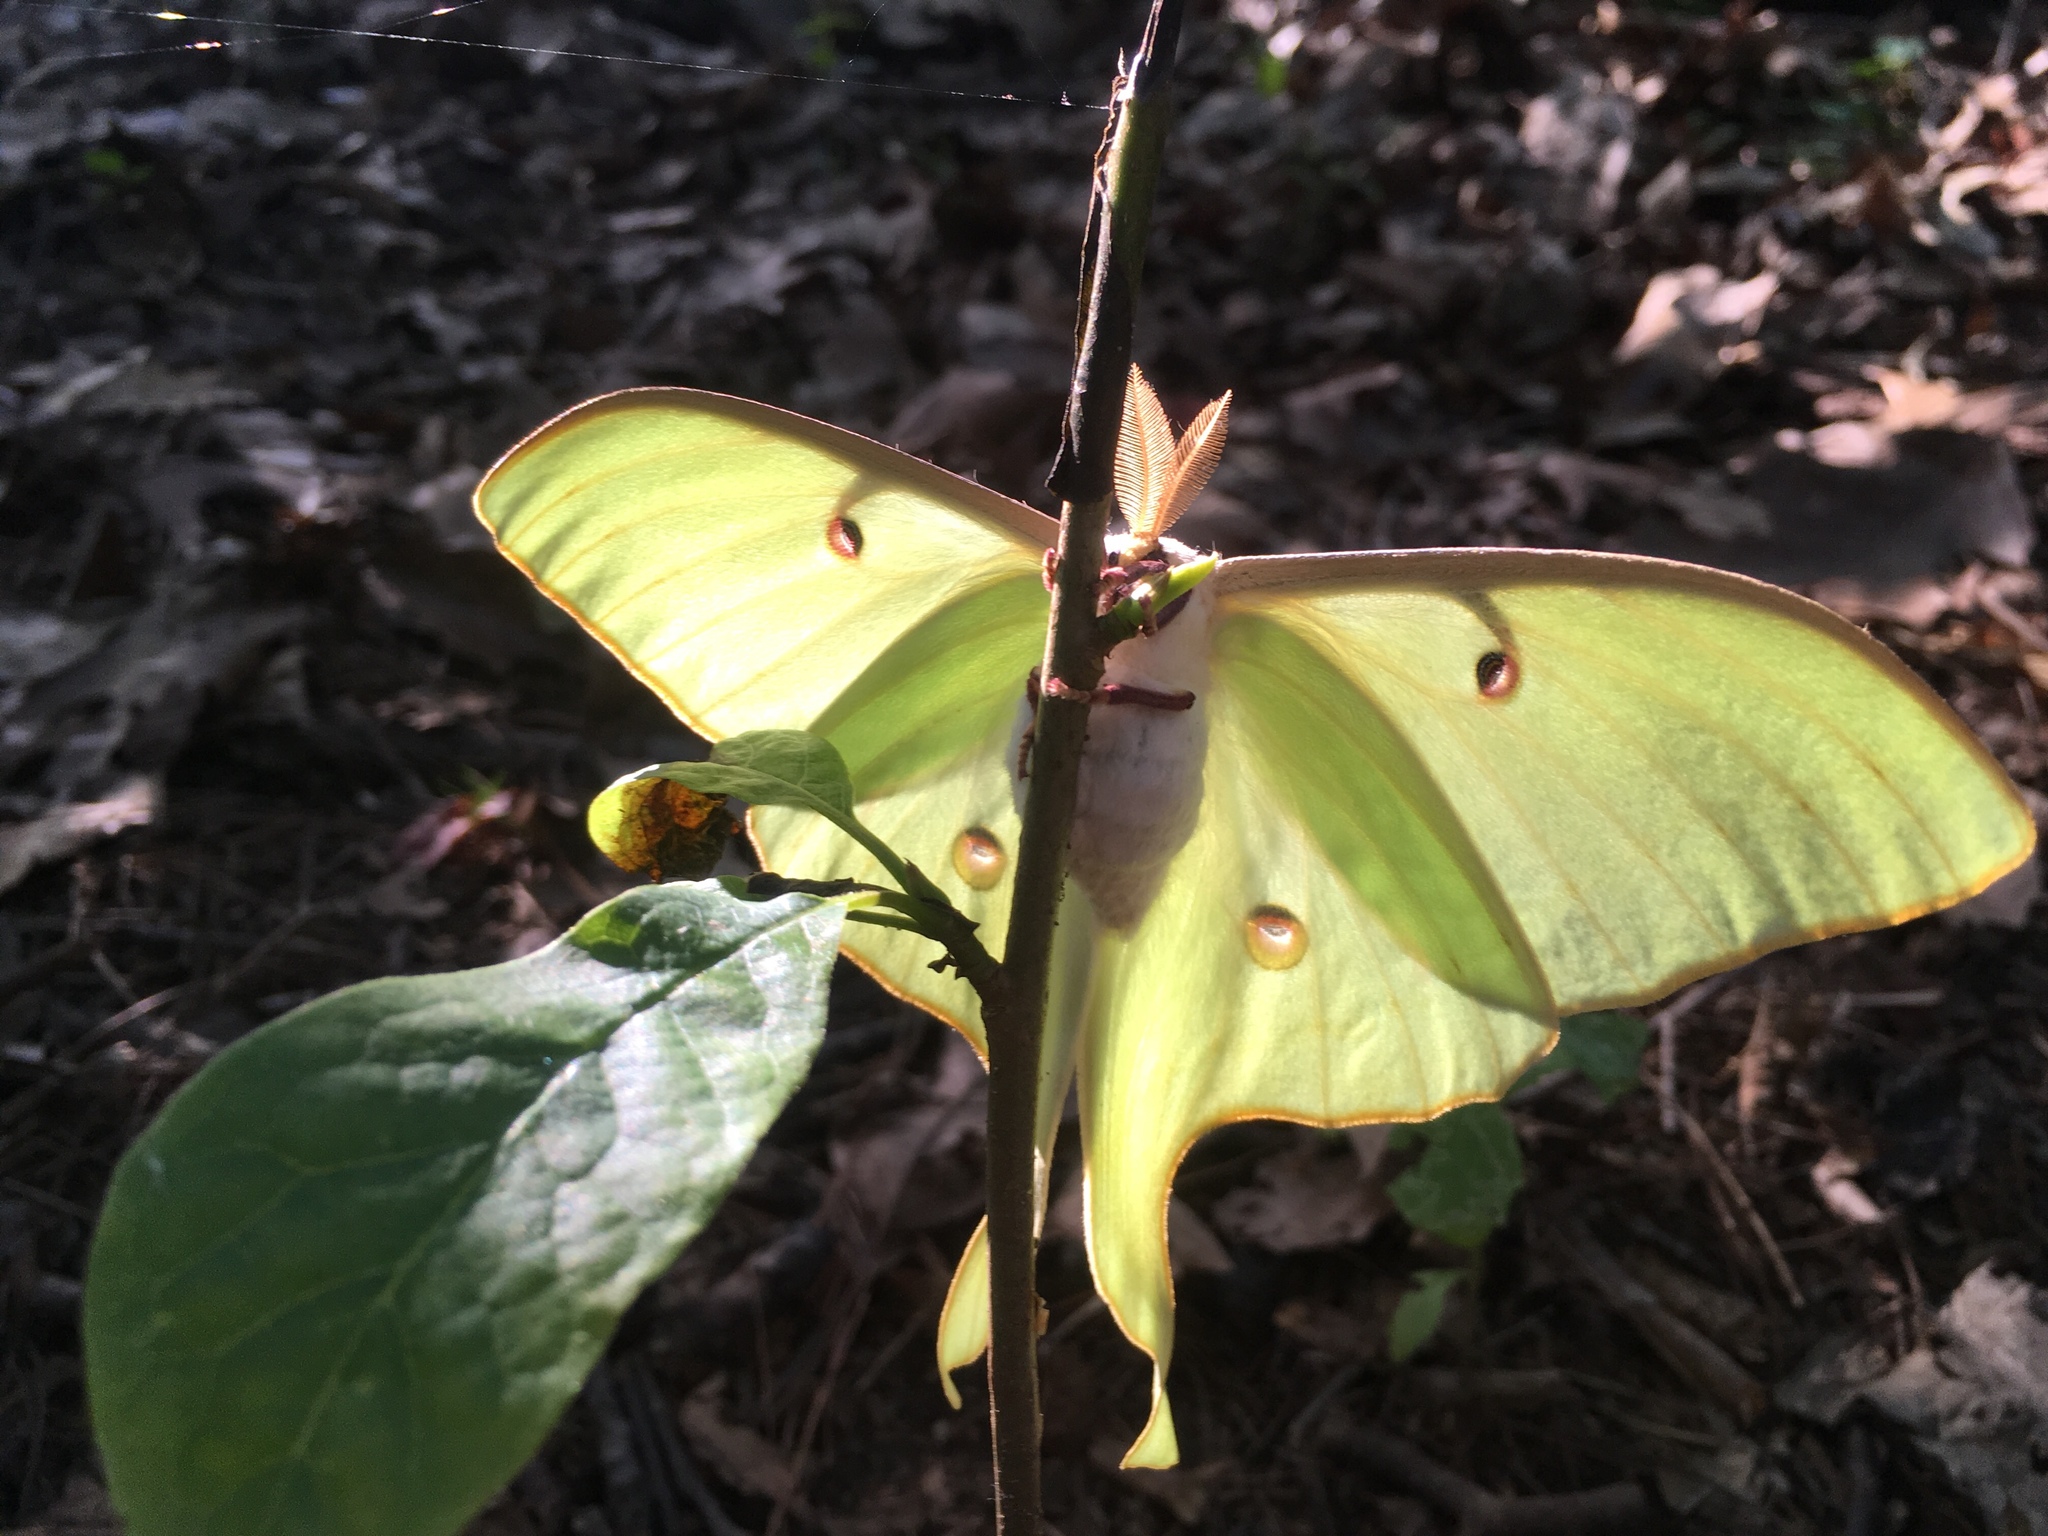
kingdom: Animalia
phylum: Arthropoda
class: Insecta
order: Lepidoptera
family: Saturniidae
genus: Actias
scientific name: Actias luna
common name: Luna moth
